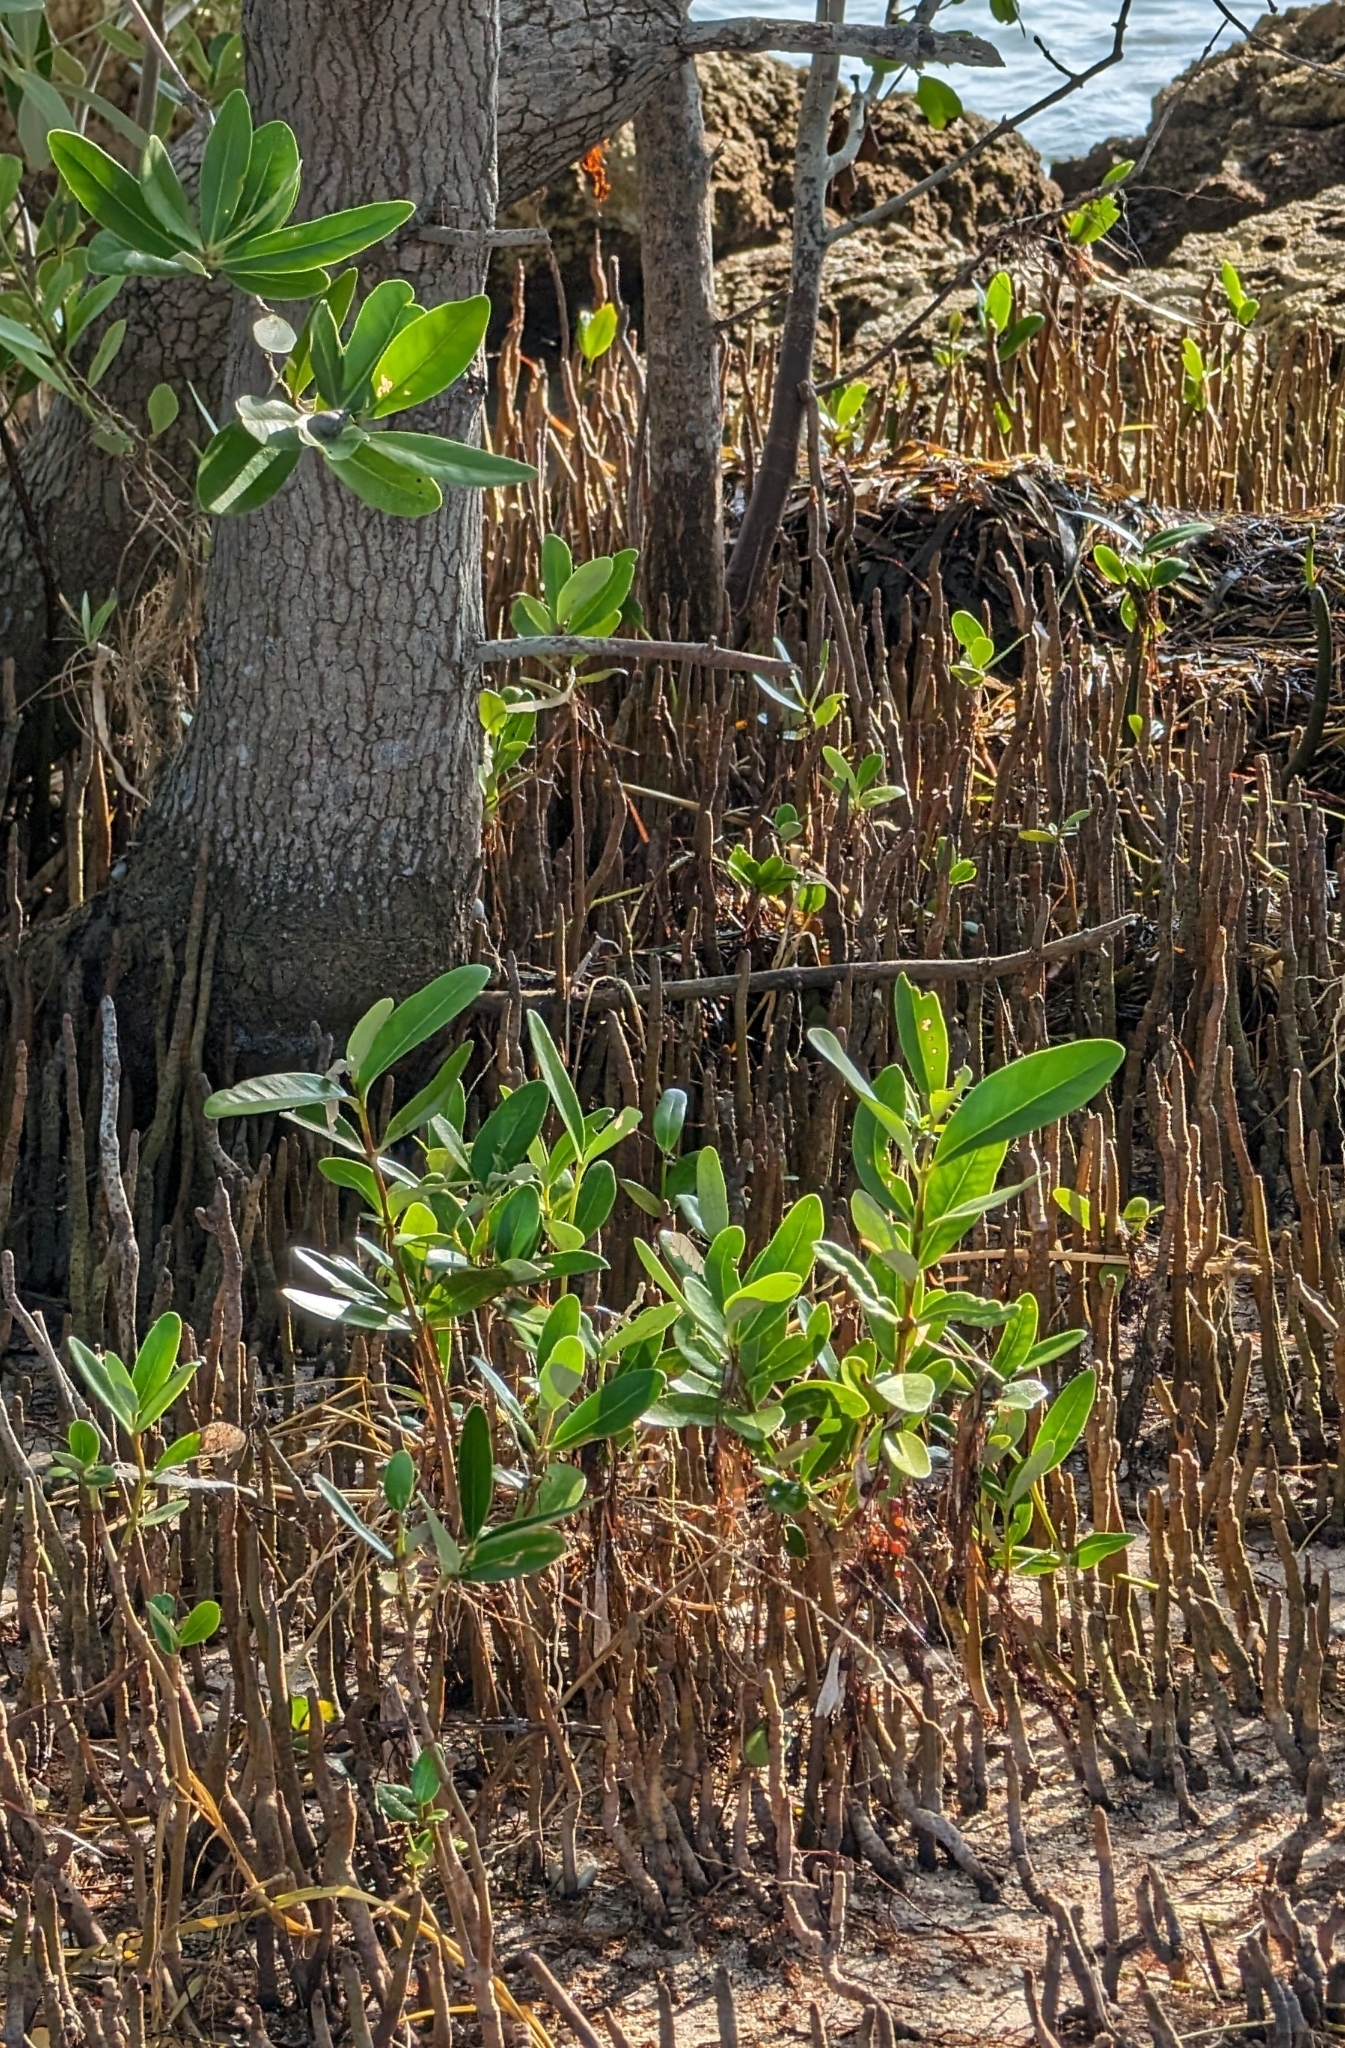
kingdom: Plantae
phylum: Tracheophyta
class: Magnoliopsida
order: Lamiales
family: Acanthaceae
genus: Avicennia
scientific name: Avicennia germinans
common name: Black mangrove
